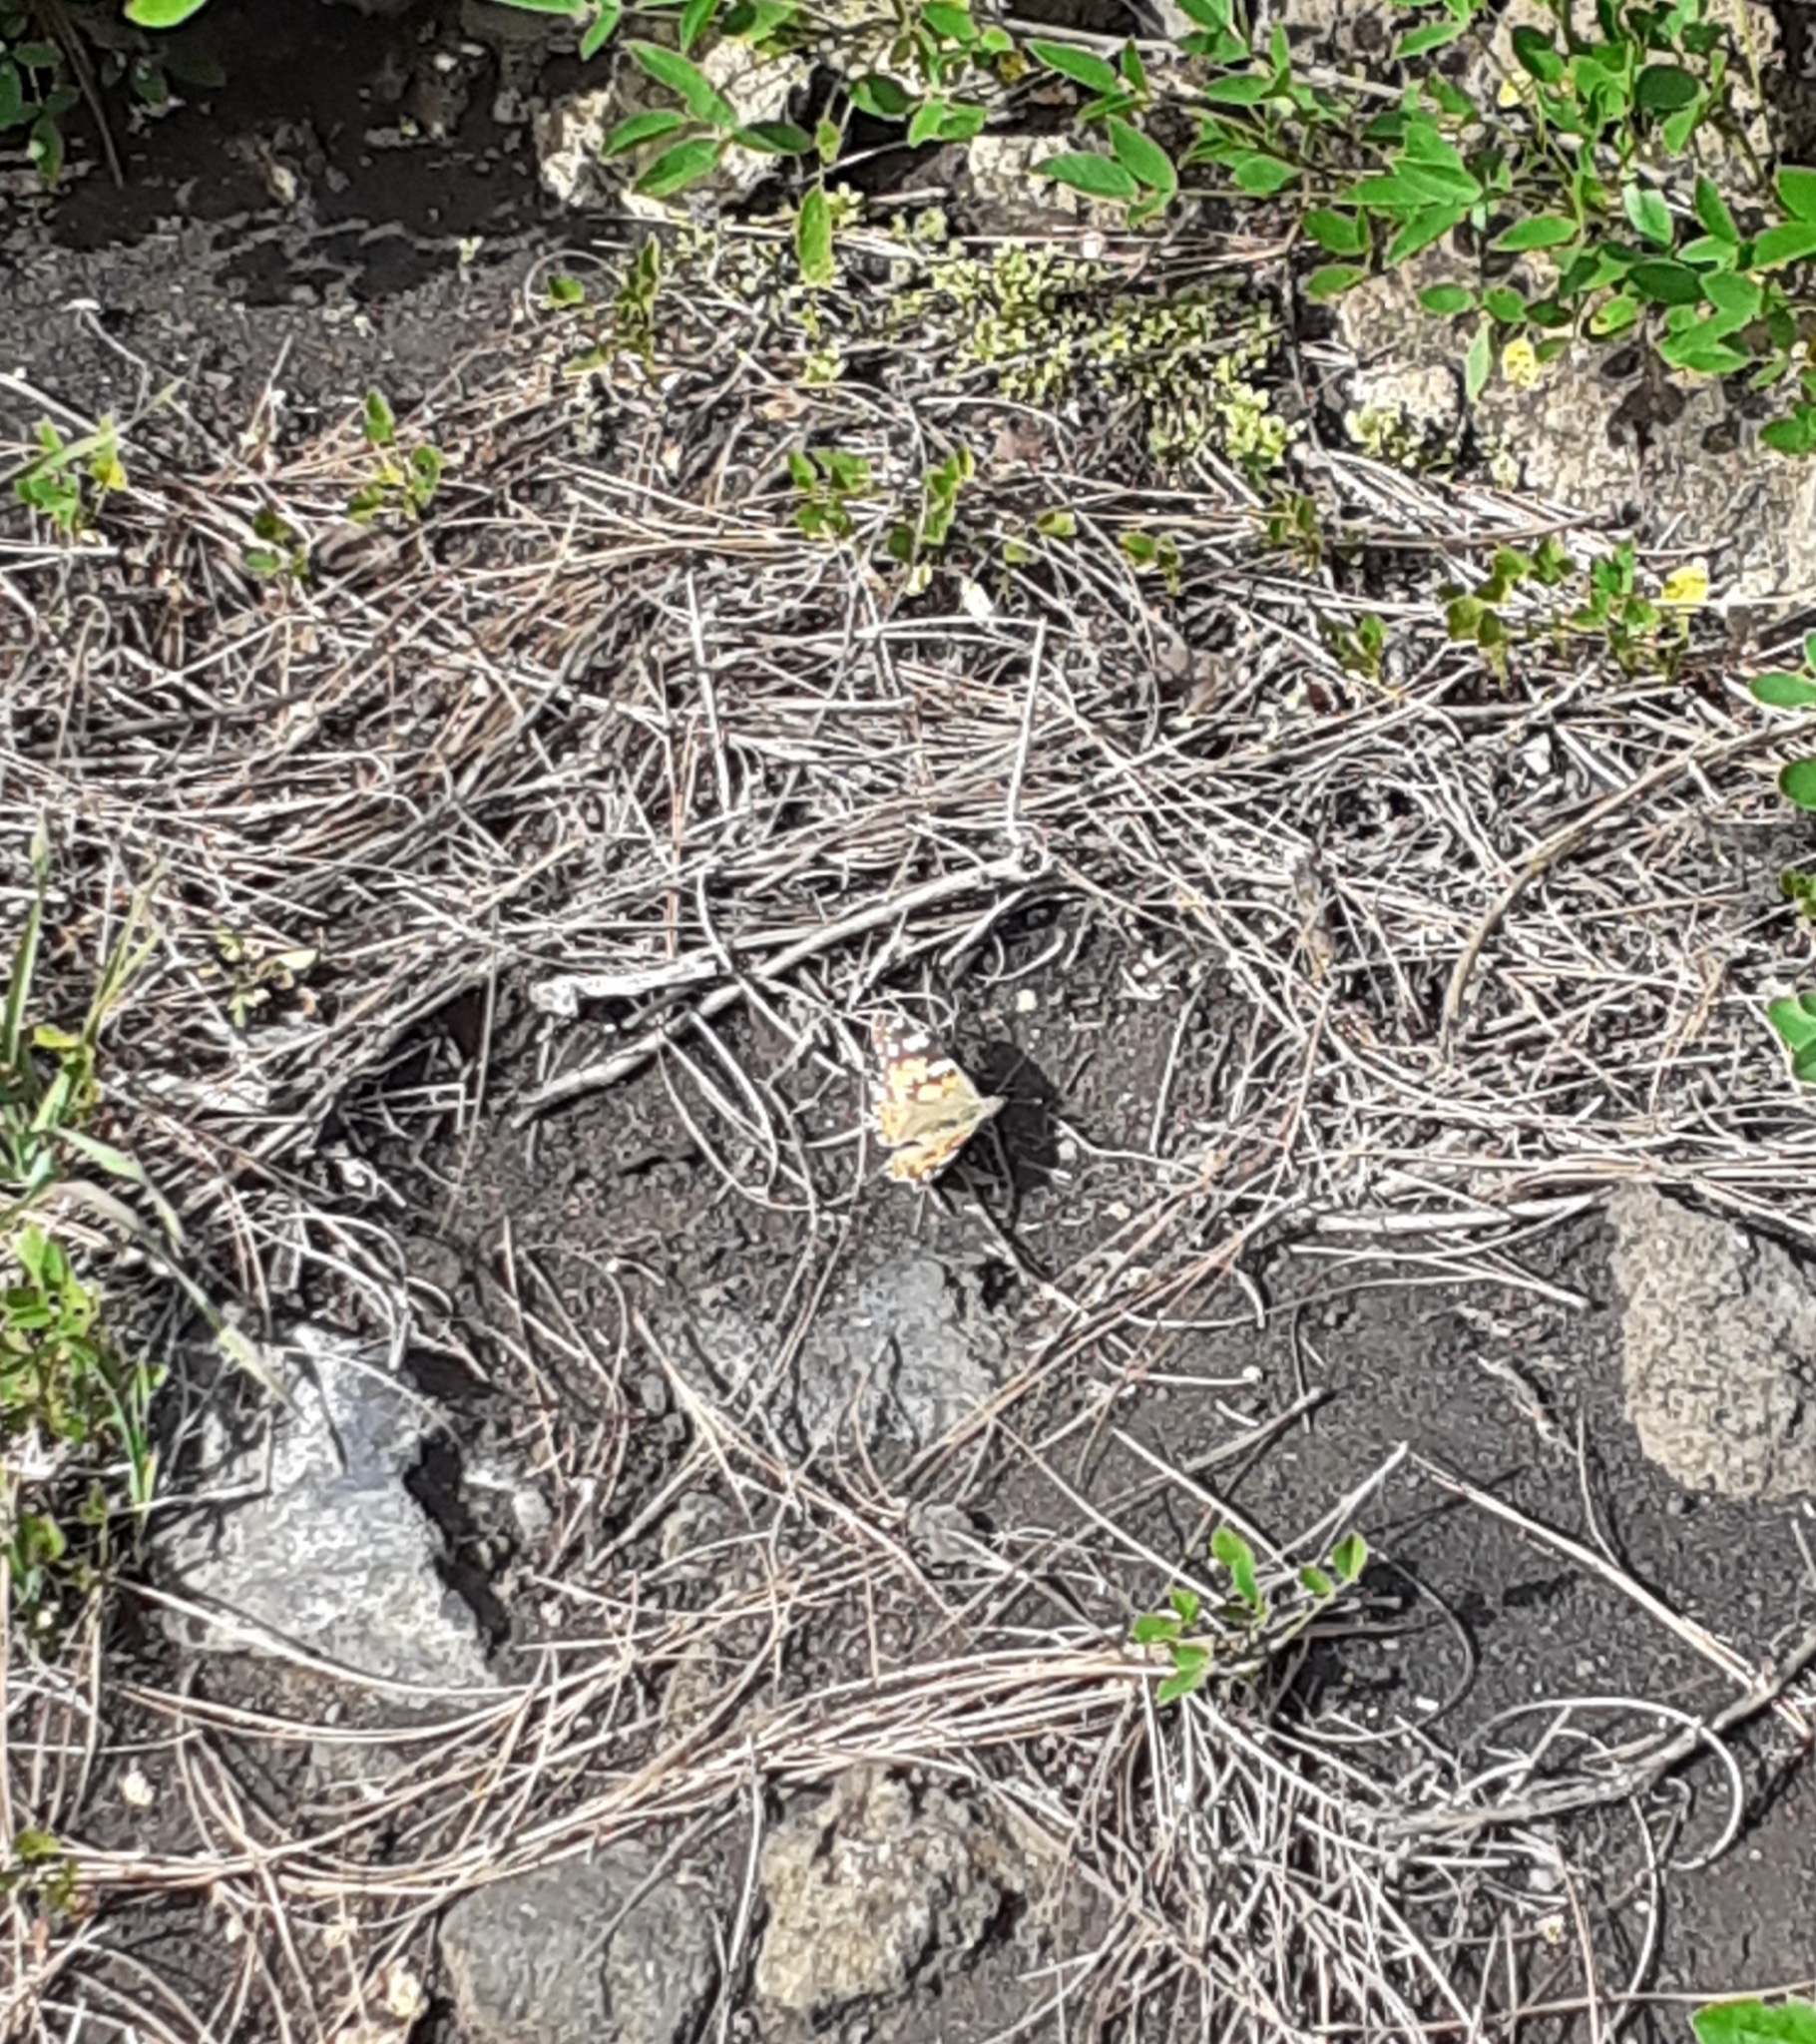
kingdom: Animalia
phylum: Arthropoda
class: Insecta
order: Lepidoptera
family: Nymphalidae
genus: Vanessa
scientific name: Vanessa cardui
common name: Painted lady
